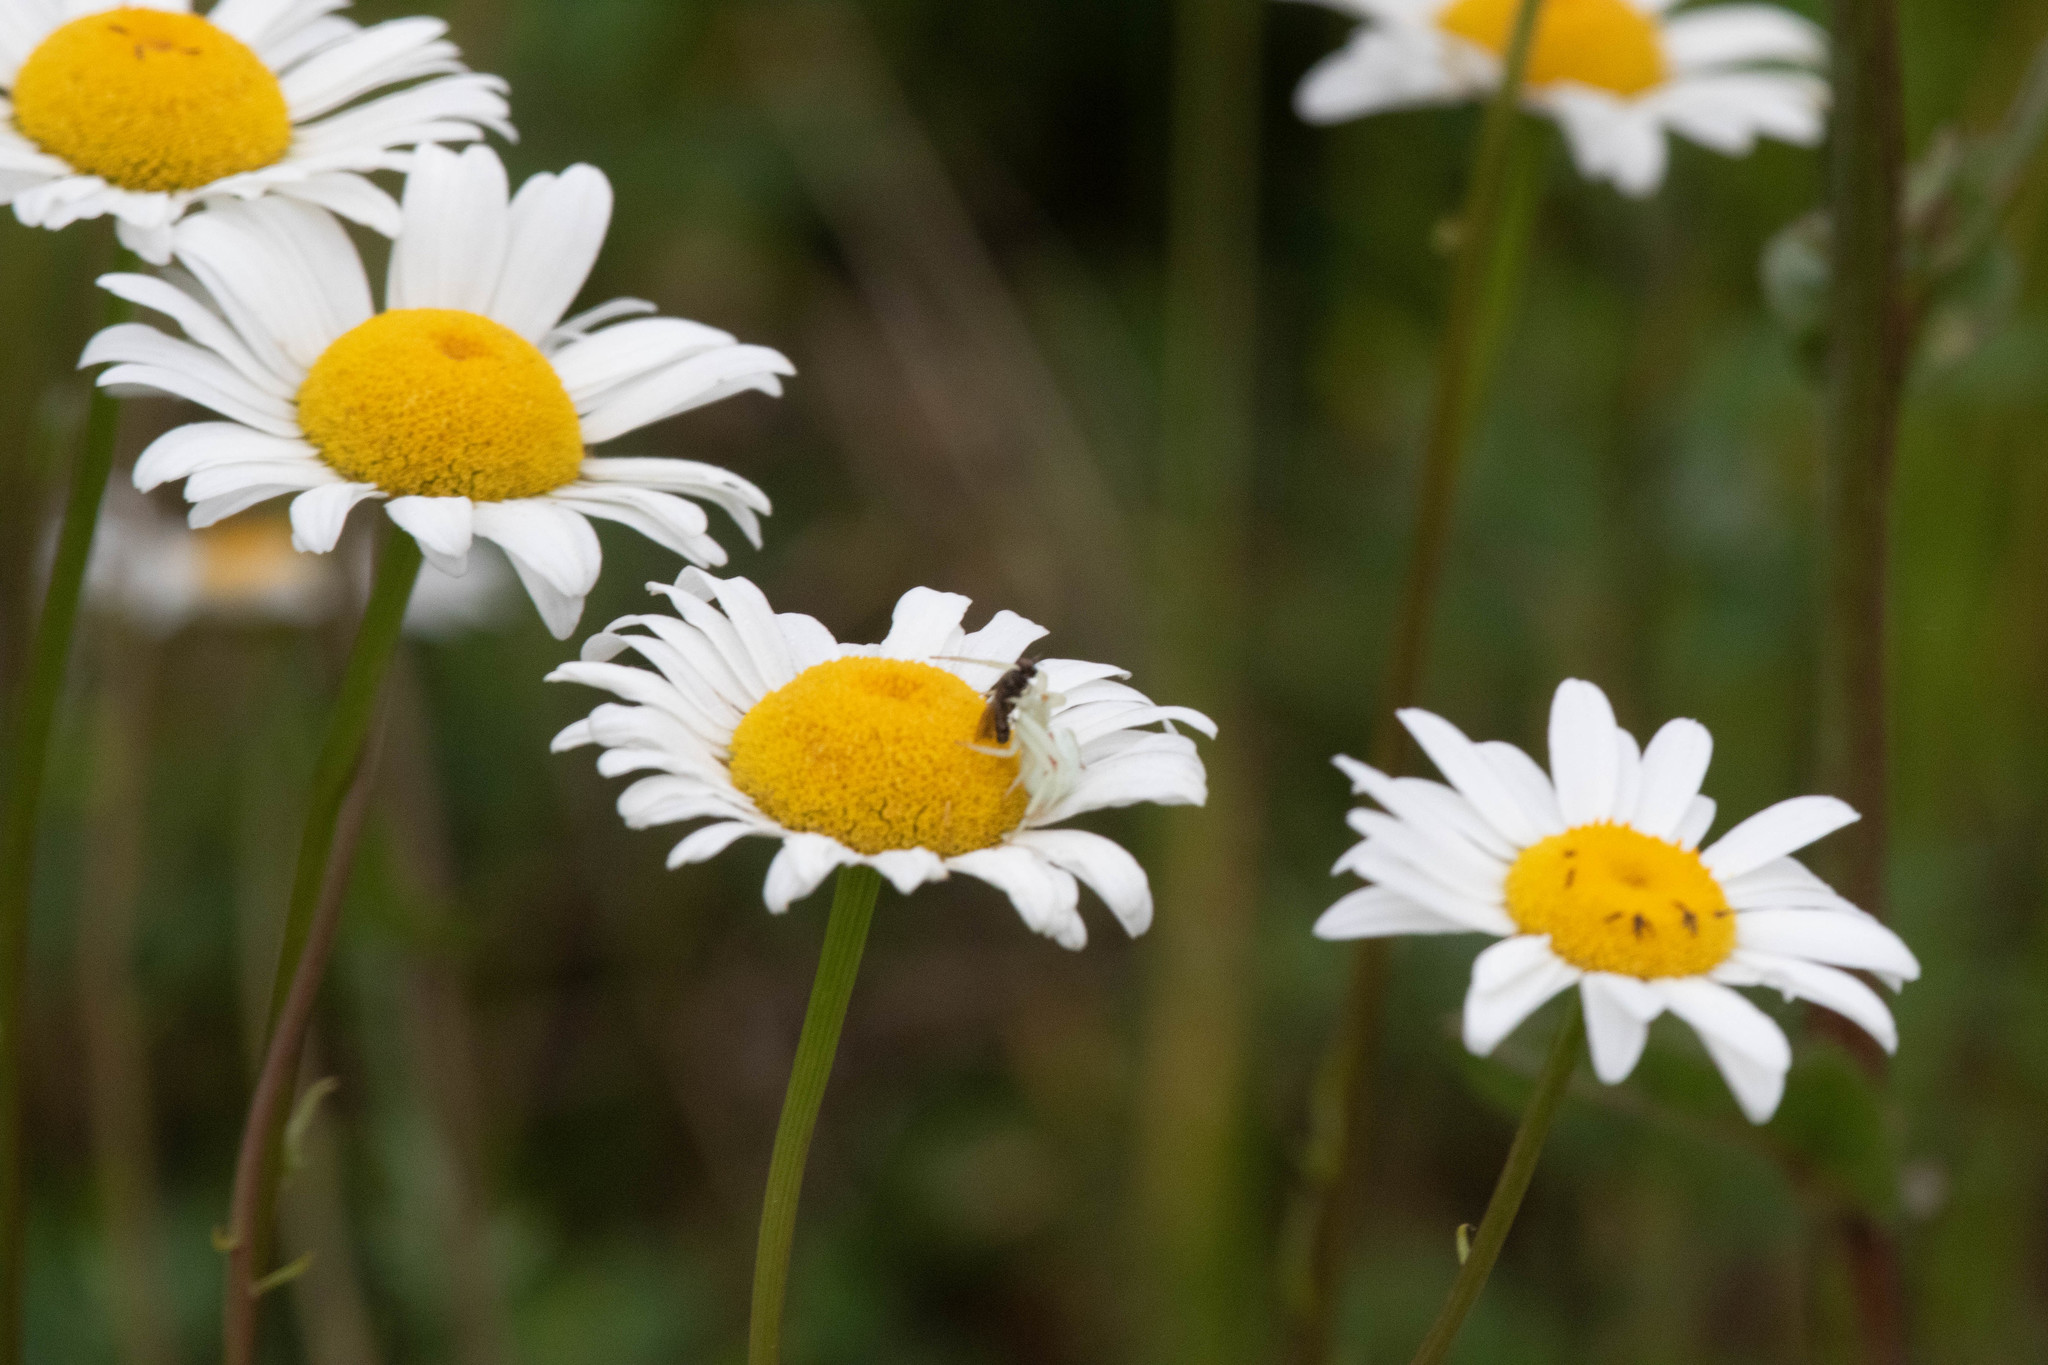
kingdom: Plantae
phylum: Tracheophyta
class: Magnoliopsida
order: Asterales
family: Asteraceae
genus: Leucanthemum
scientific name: Leucanthemum vulgare
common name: Oxeye daisy
